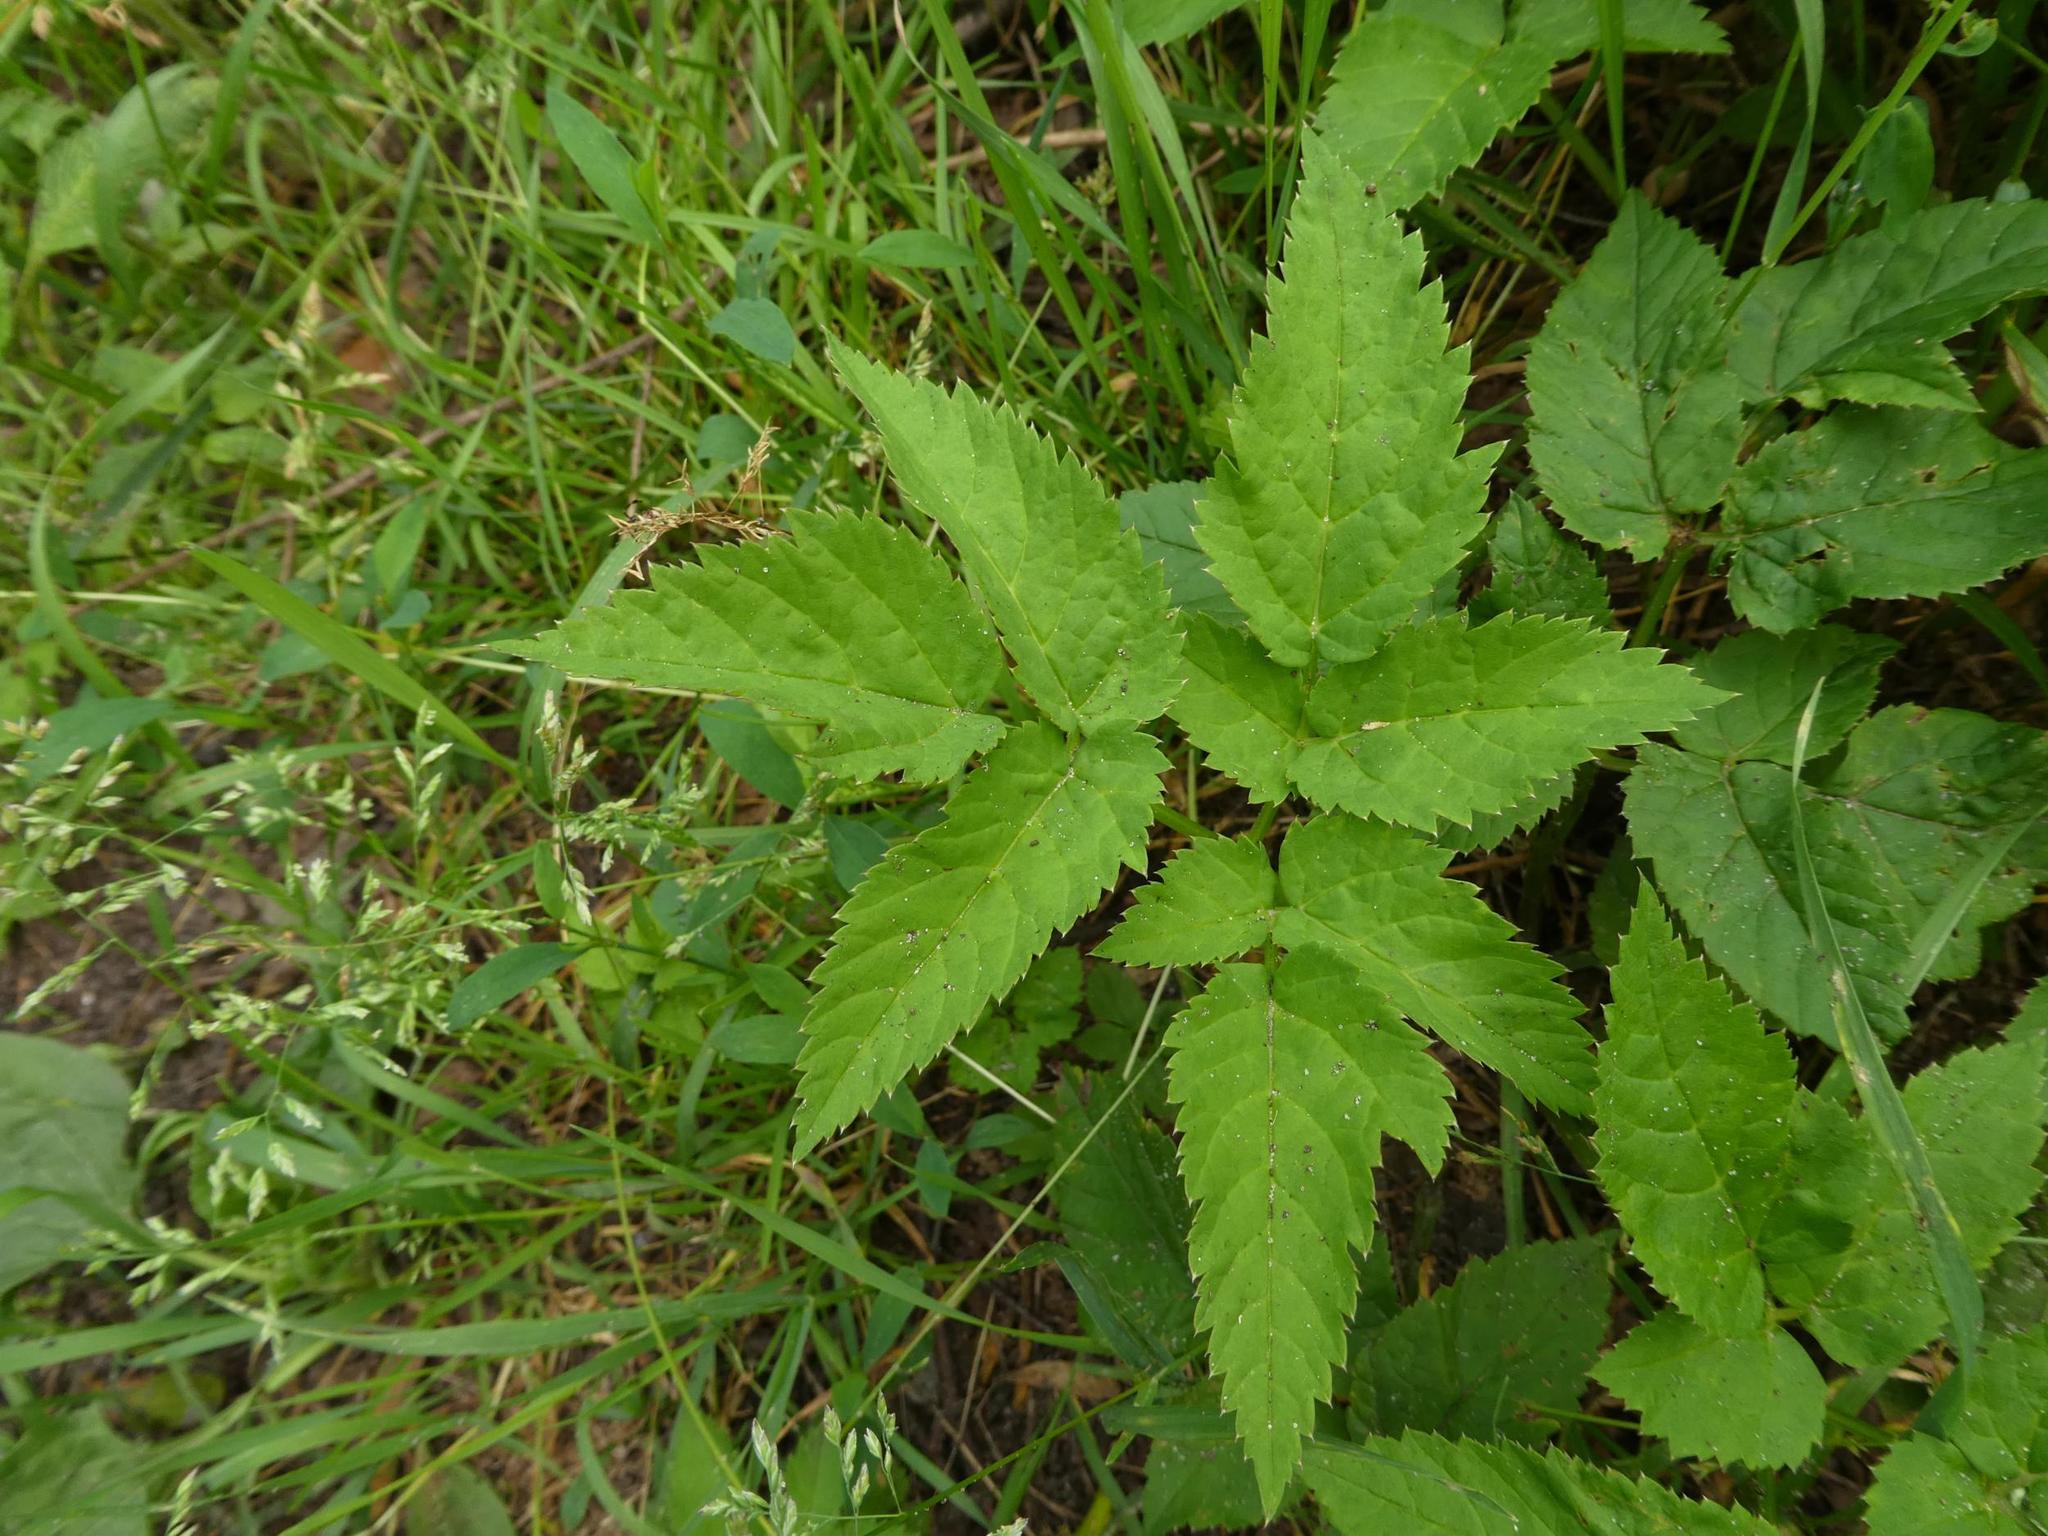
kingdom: Plantae
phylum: Tracheophyta
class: Magnoliopsida
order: Apiales
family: Apiaceae
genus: Aegopodium
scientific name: Aegopodium podagraria
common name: Ground-elder
